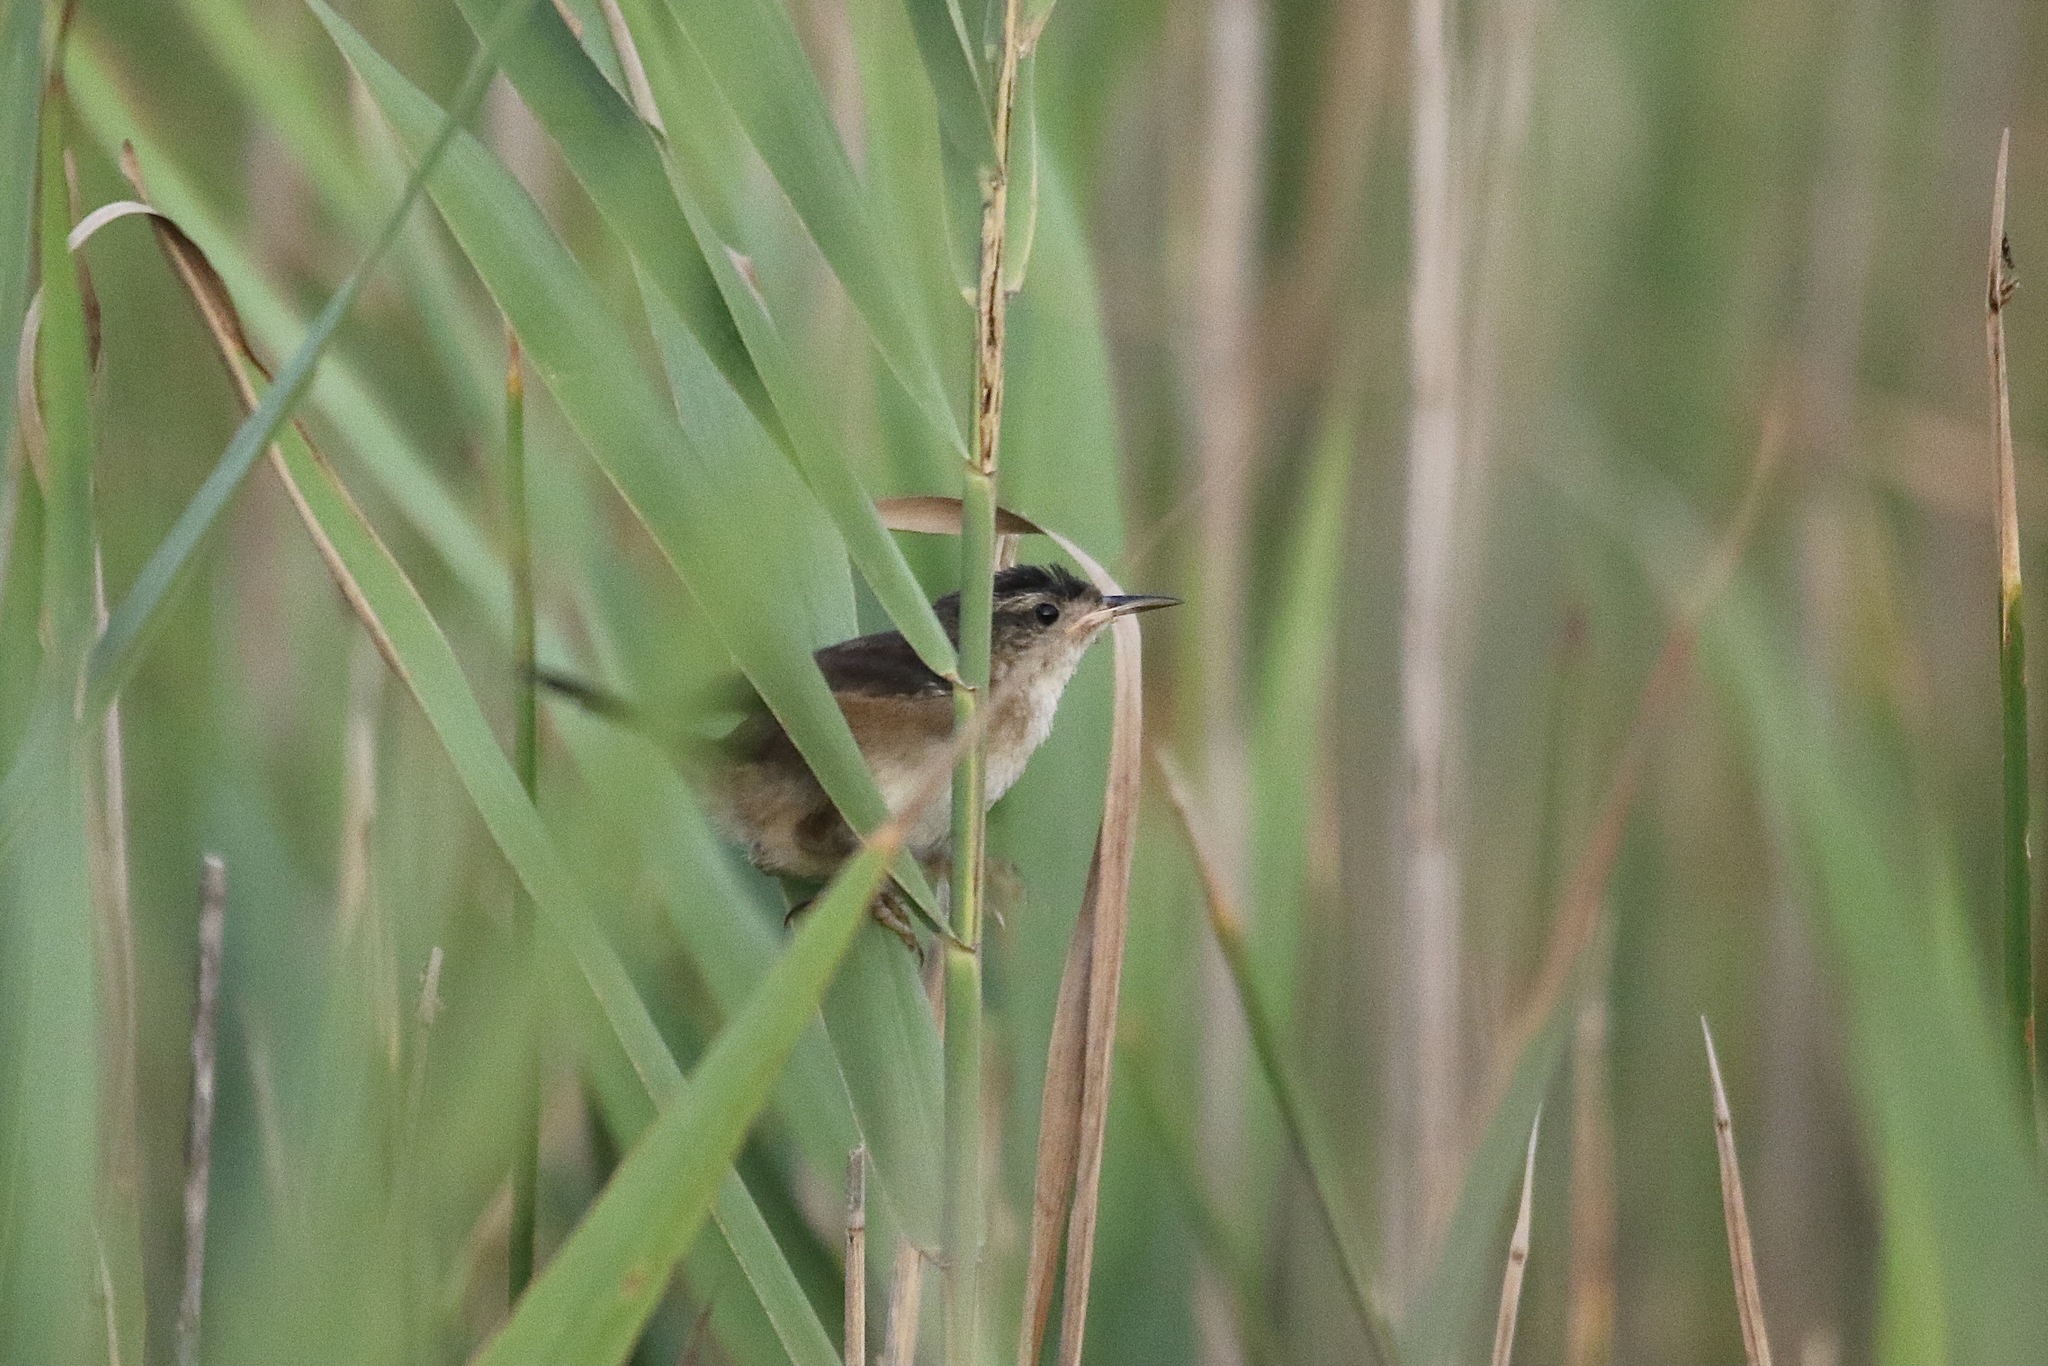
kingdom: Animalia
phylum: Chordata
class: Aves
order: Passeriformes
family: Troglodytidae
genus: Cistothorus
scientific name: Cistothorus palustris
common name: Marsh wren
